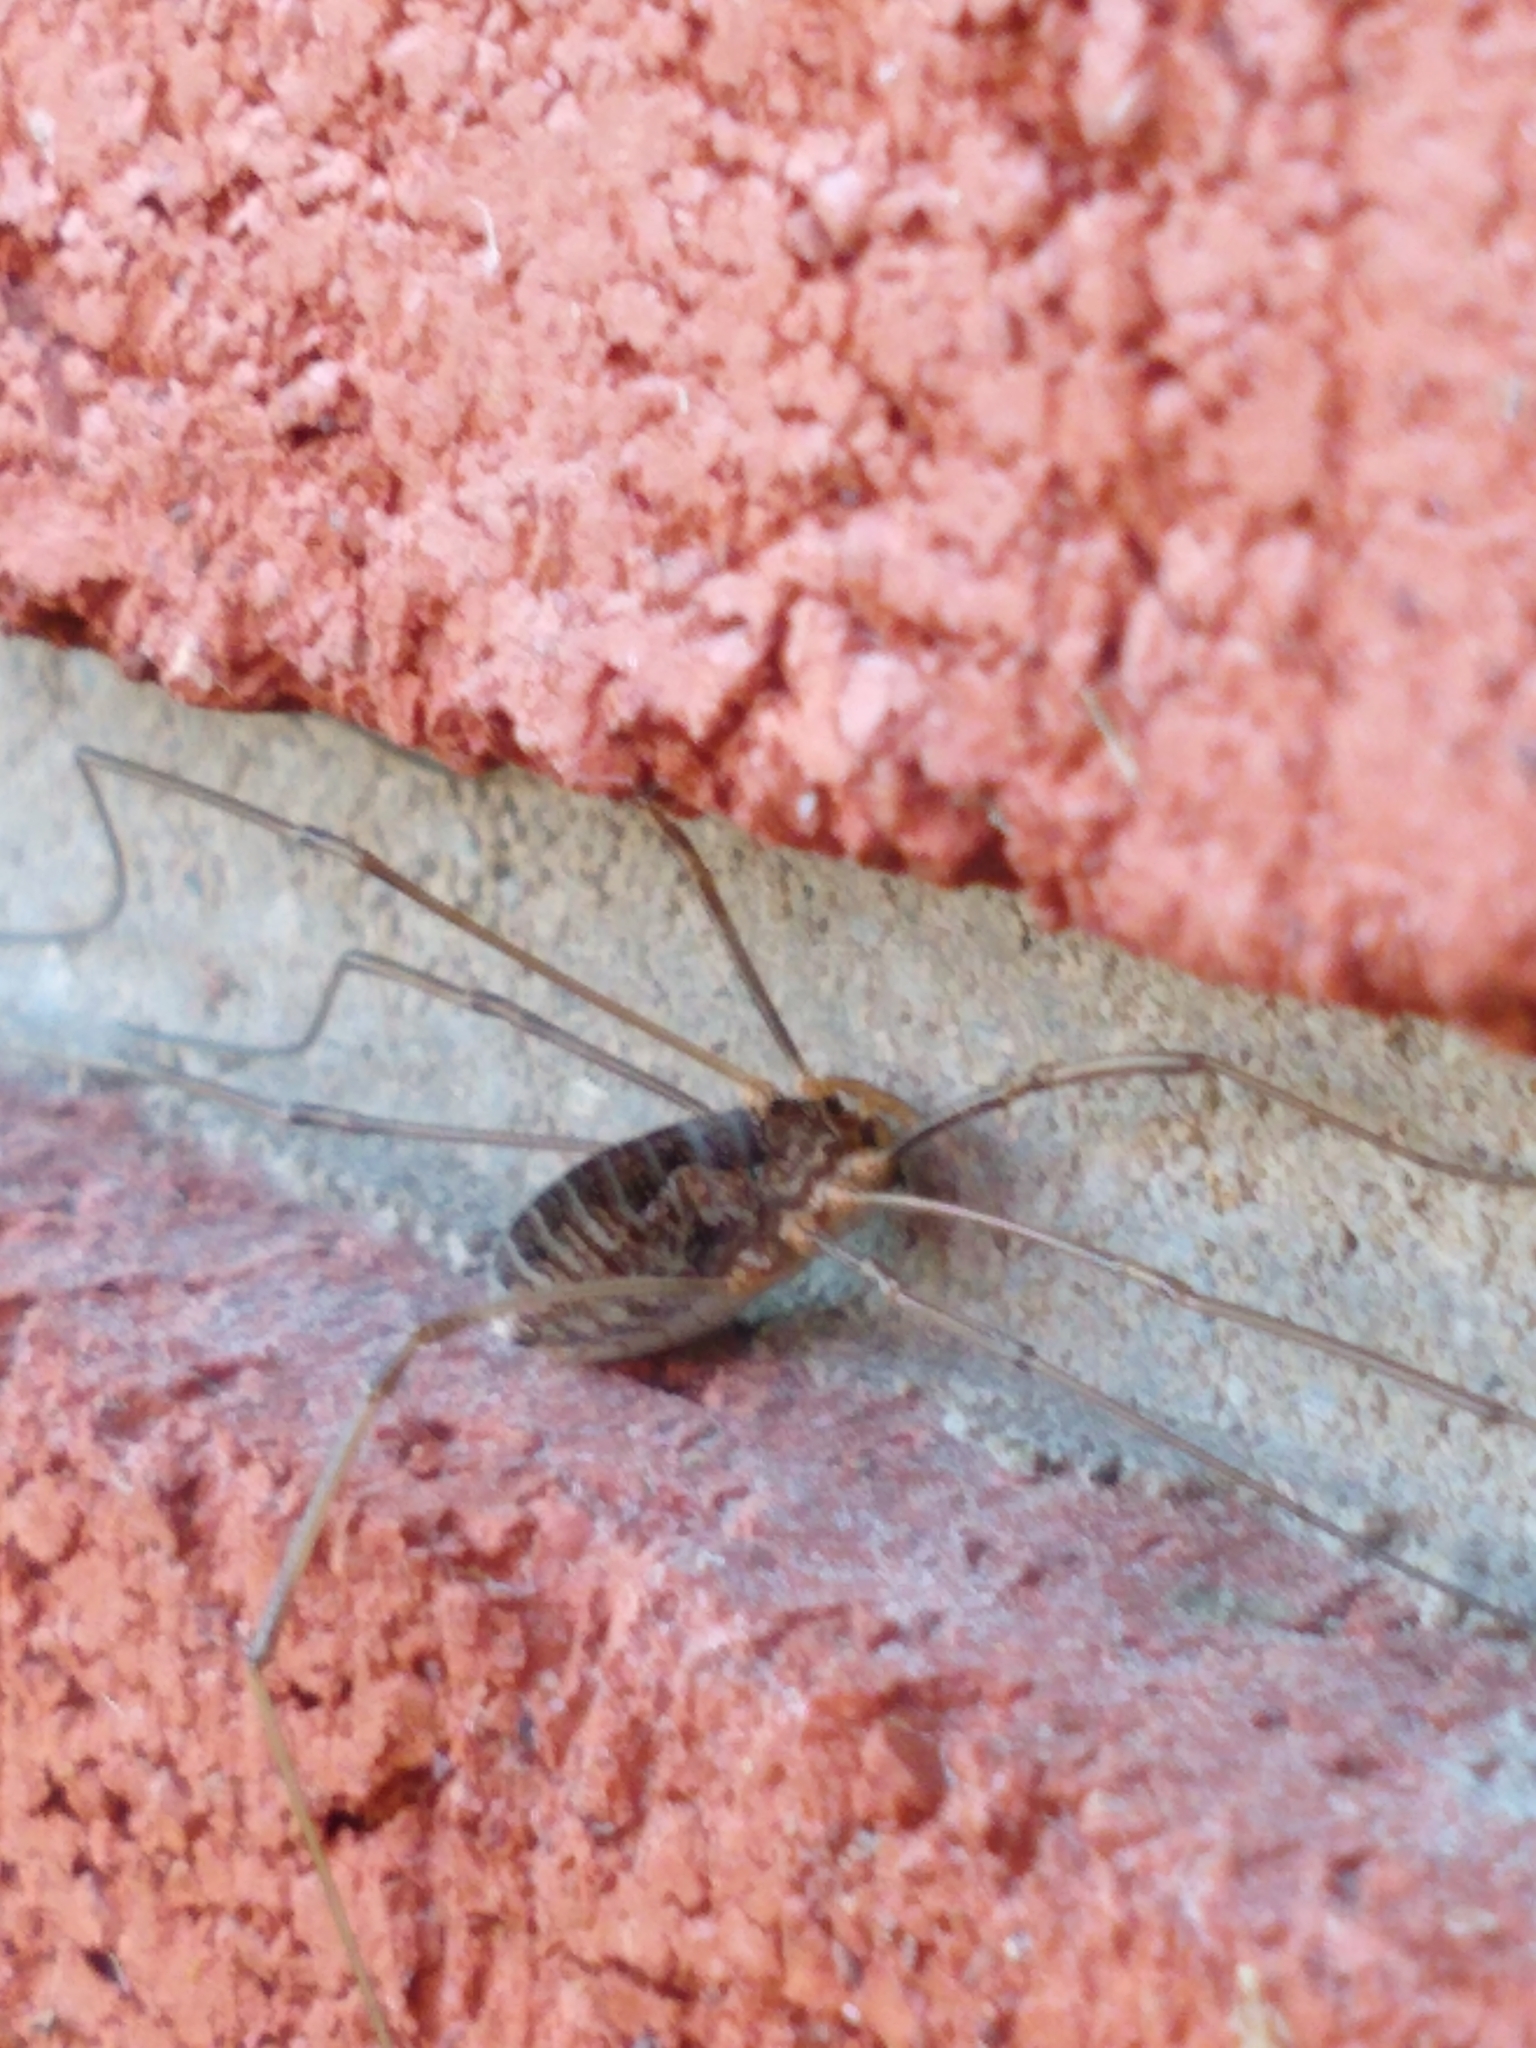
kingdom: Animalia
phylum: Arthropoda
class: Arachnida
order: Opiliones
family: Phalangiidae
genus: Phalangium
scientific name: Phalangium opilio
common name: Daddy longleg
